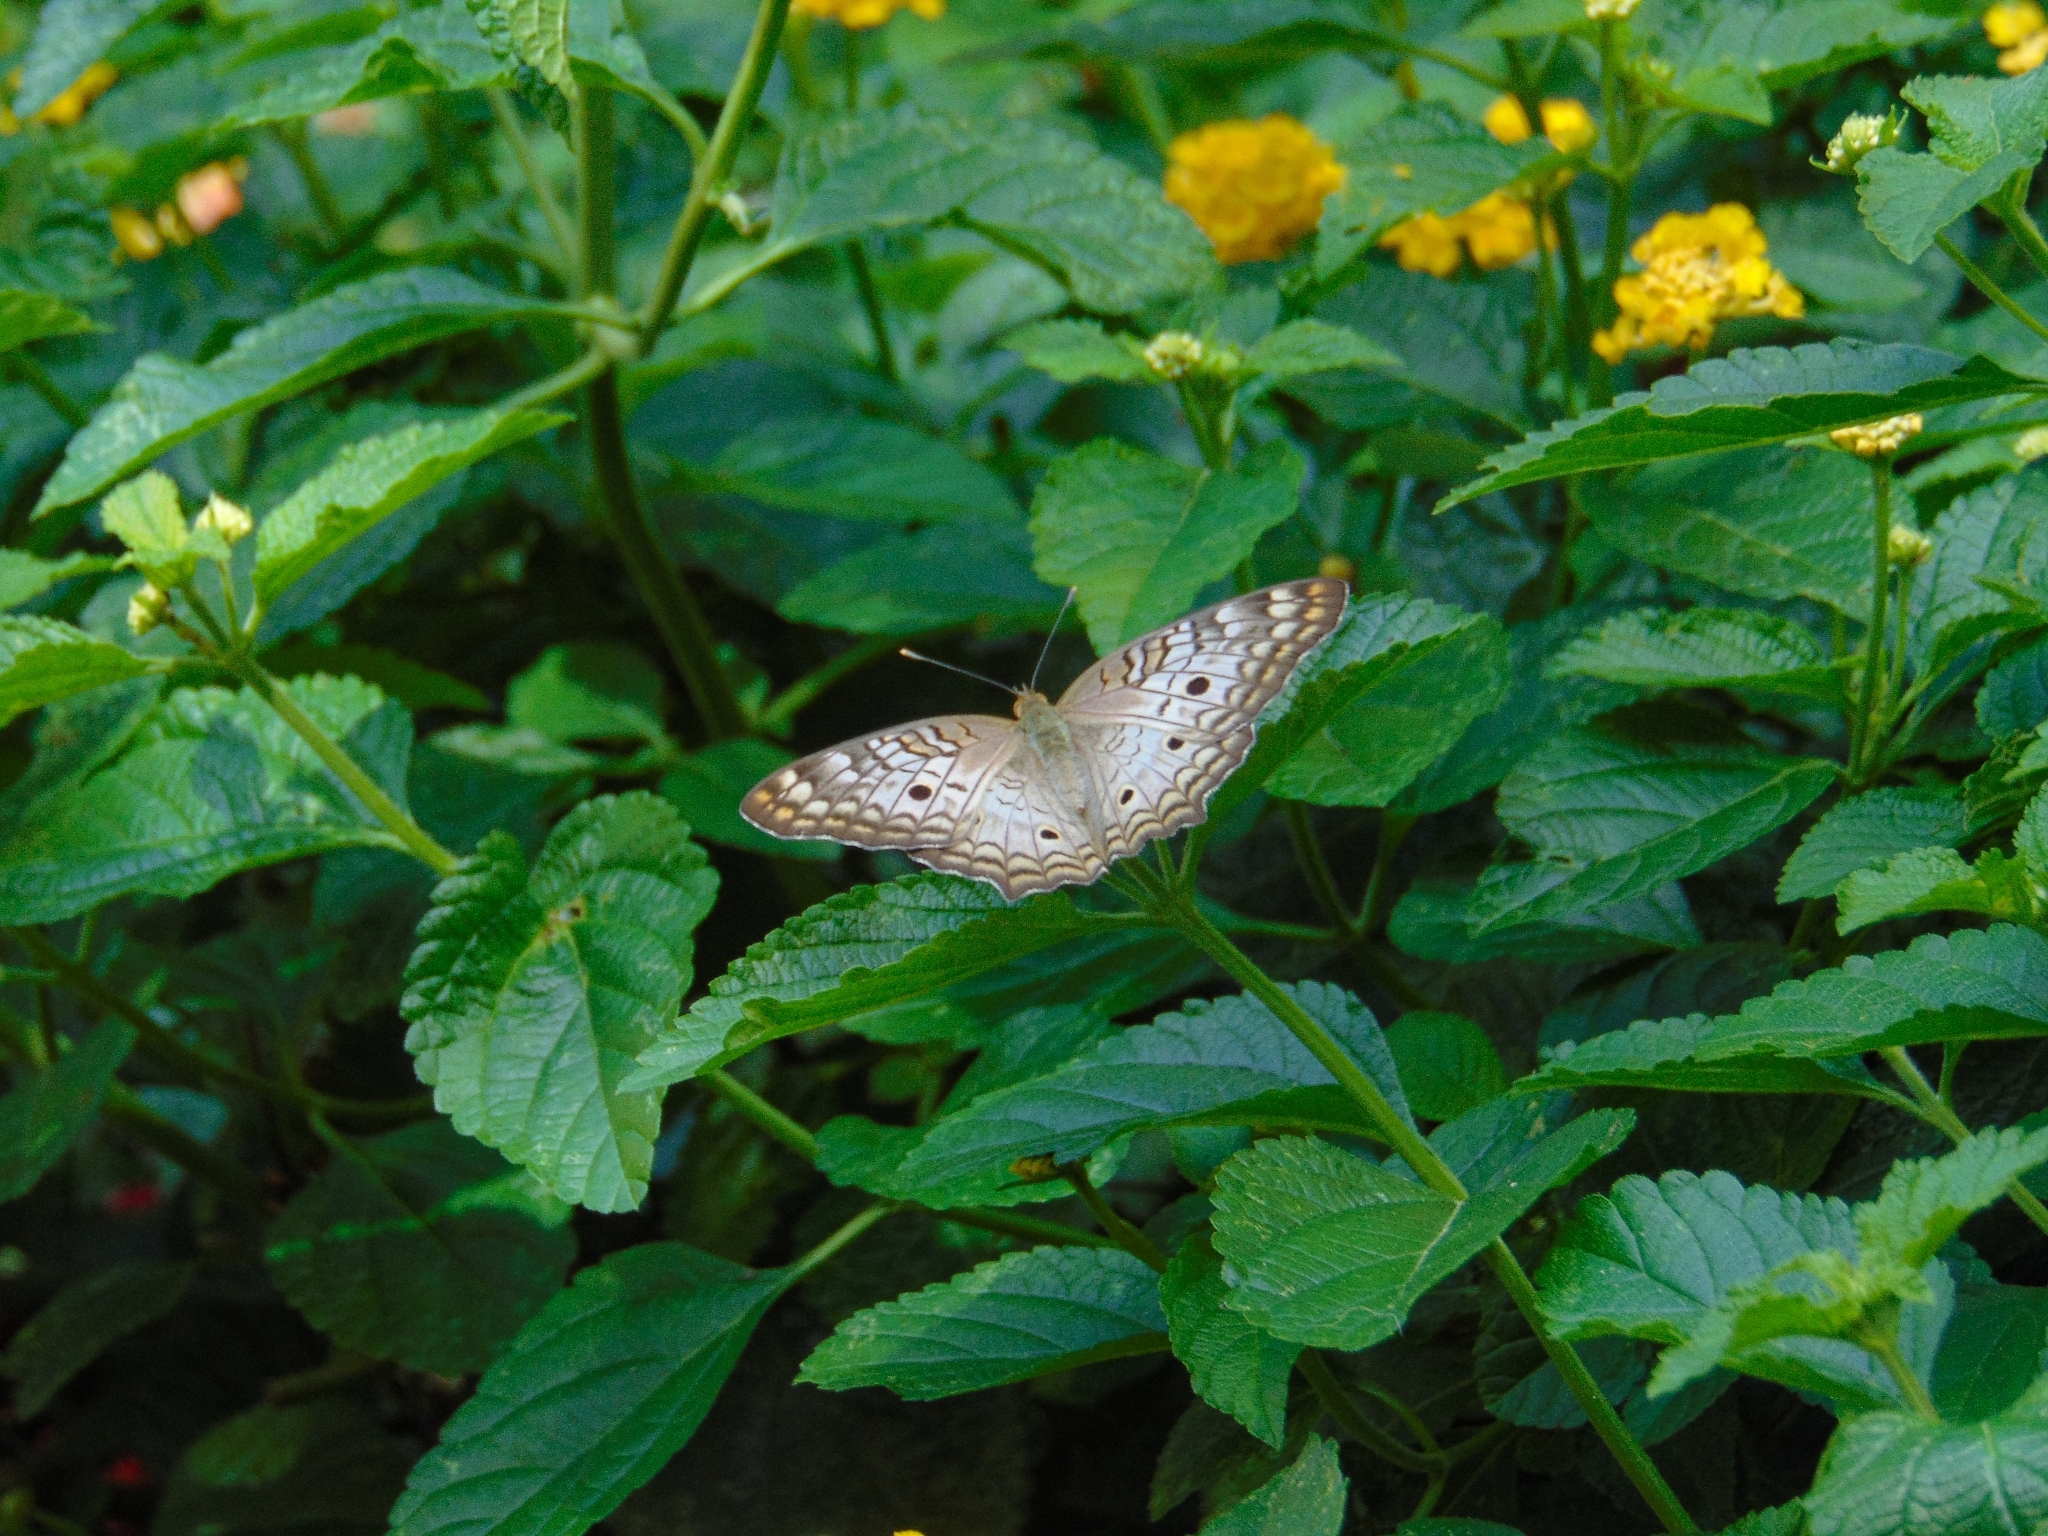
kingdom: Animalia
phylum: Arthropoda
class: Insecta
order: Lepidoptera
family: Nymphalidae
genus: Anartia
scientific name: Anartia jatrophae
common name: White peacock
